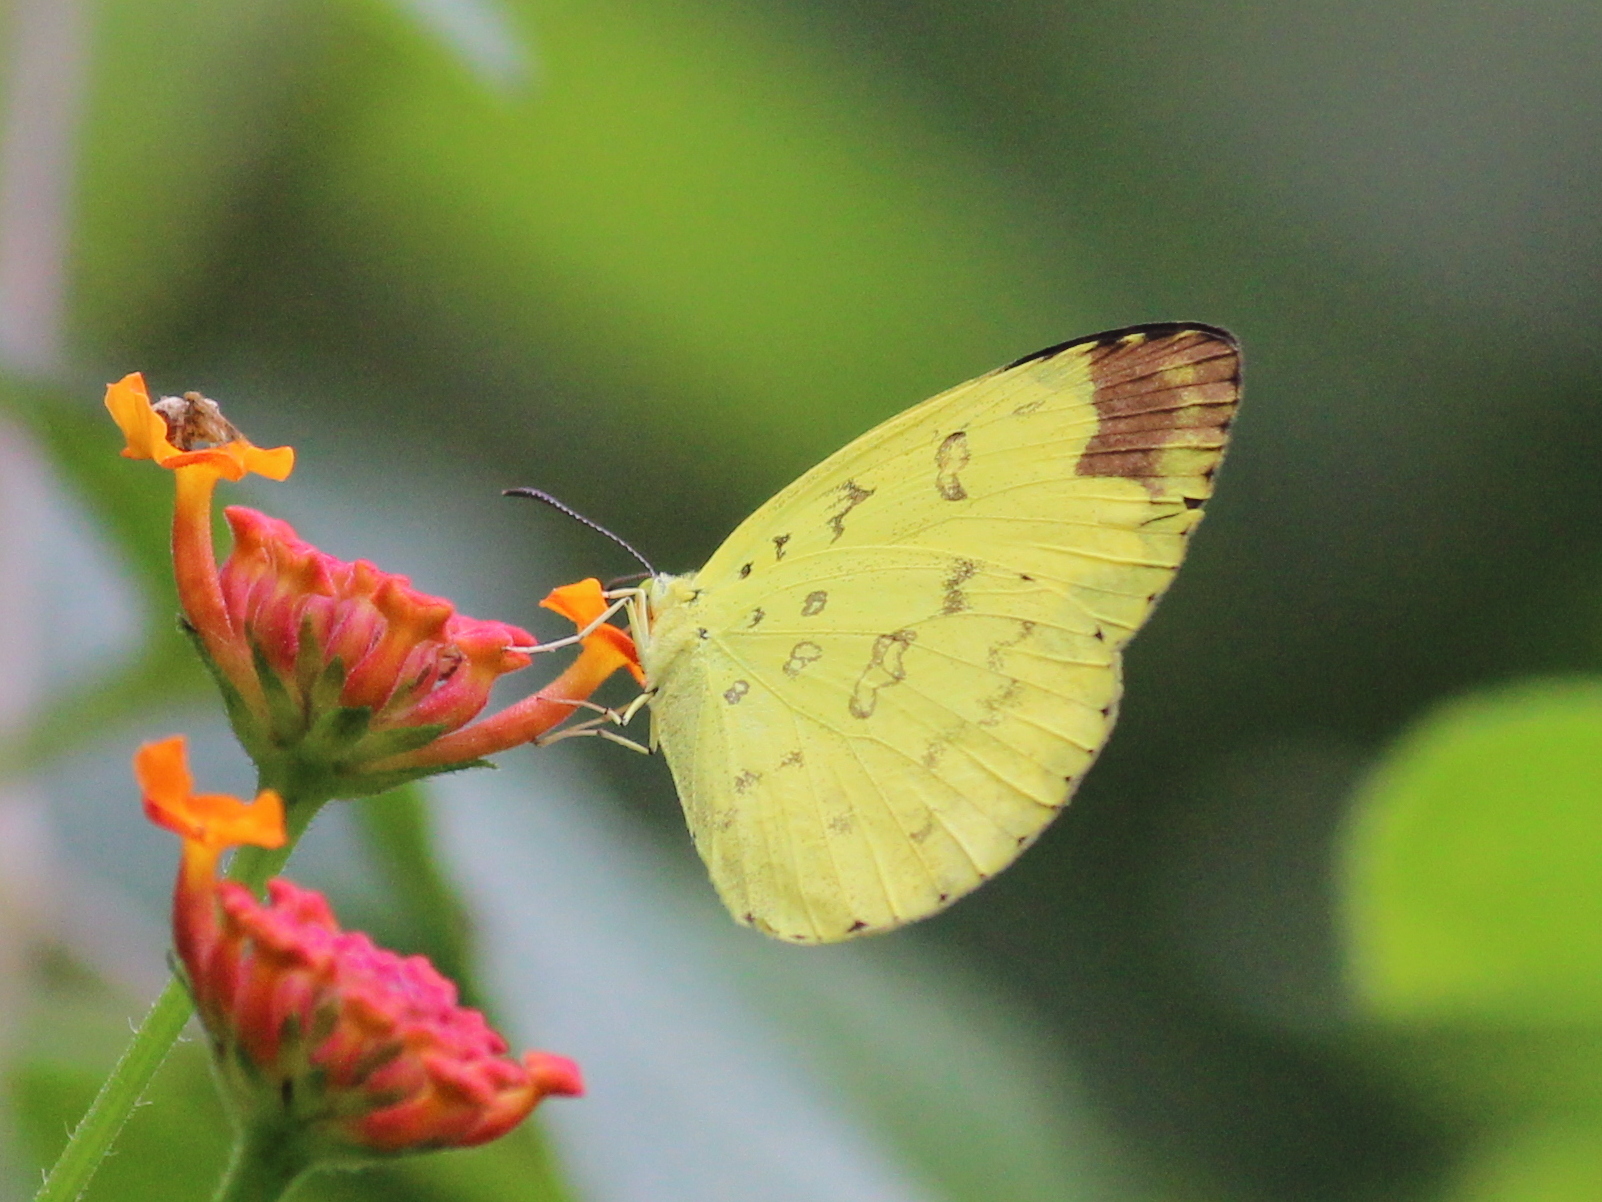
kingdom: Animalia
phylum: Arthropoda
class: Insecta
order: Lepidoptera
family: Pieridae
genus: Eurema
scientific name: Eurema blanda
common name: Three-spot grass yellow
